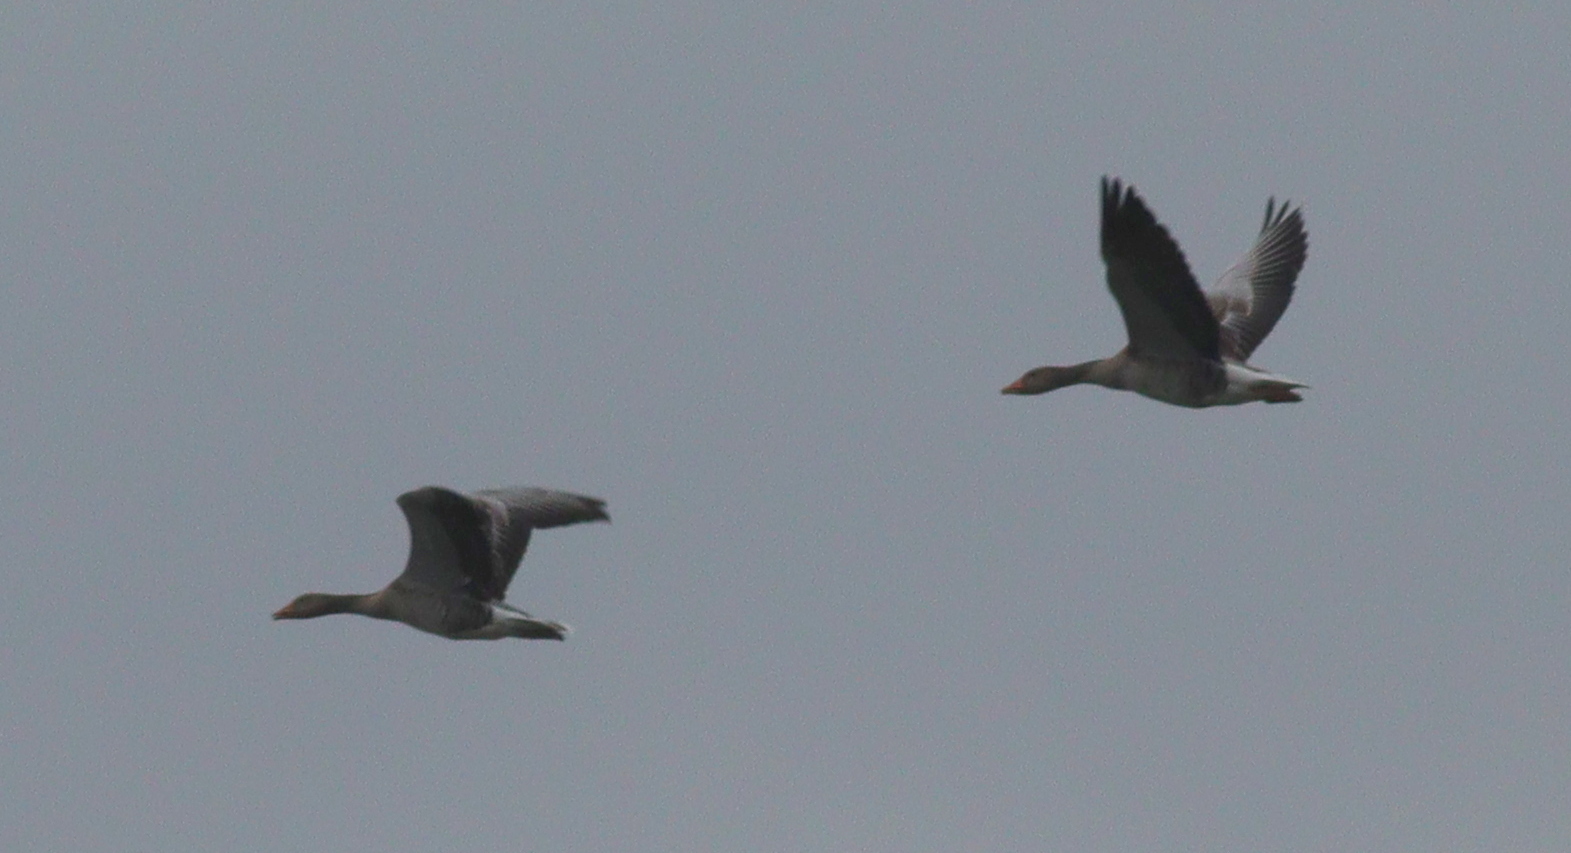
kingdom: Animalia
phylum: Chordata
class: Aves
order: Anseriformes
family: Anatidae
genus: Anser
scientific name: Anser anser
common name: Greylag goose
